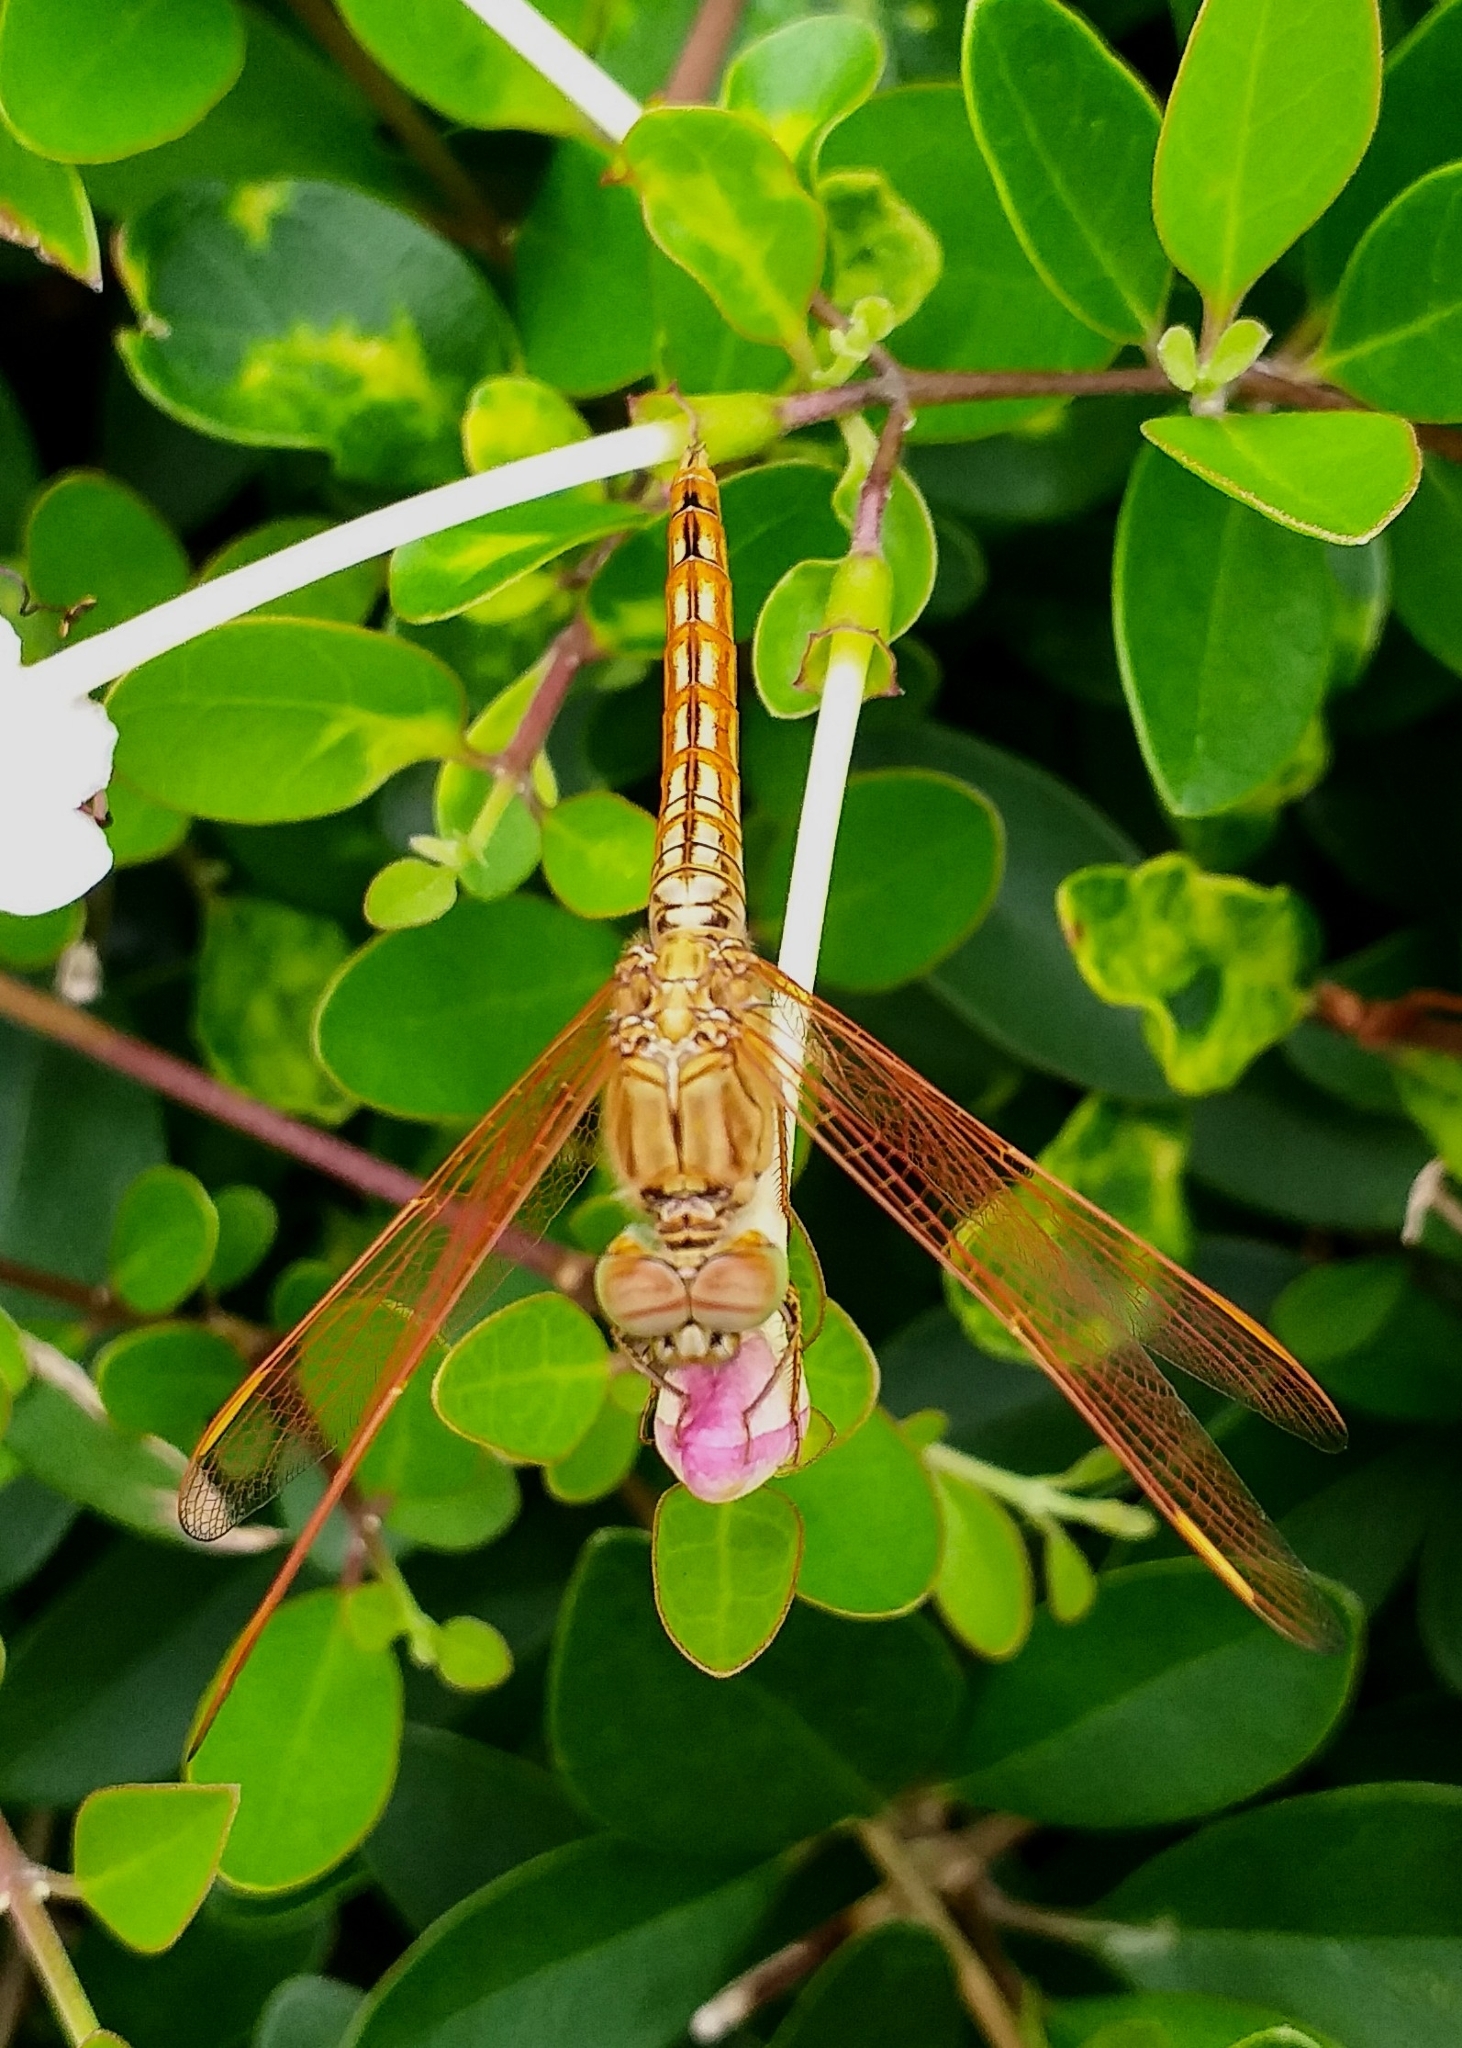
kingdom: Animalia
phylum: Arthropoda
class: Insecta
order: Odonata
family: Libellulidae
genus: Brachythemis
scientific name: Brachythemis contaminata
